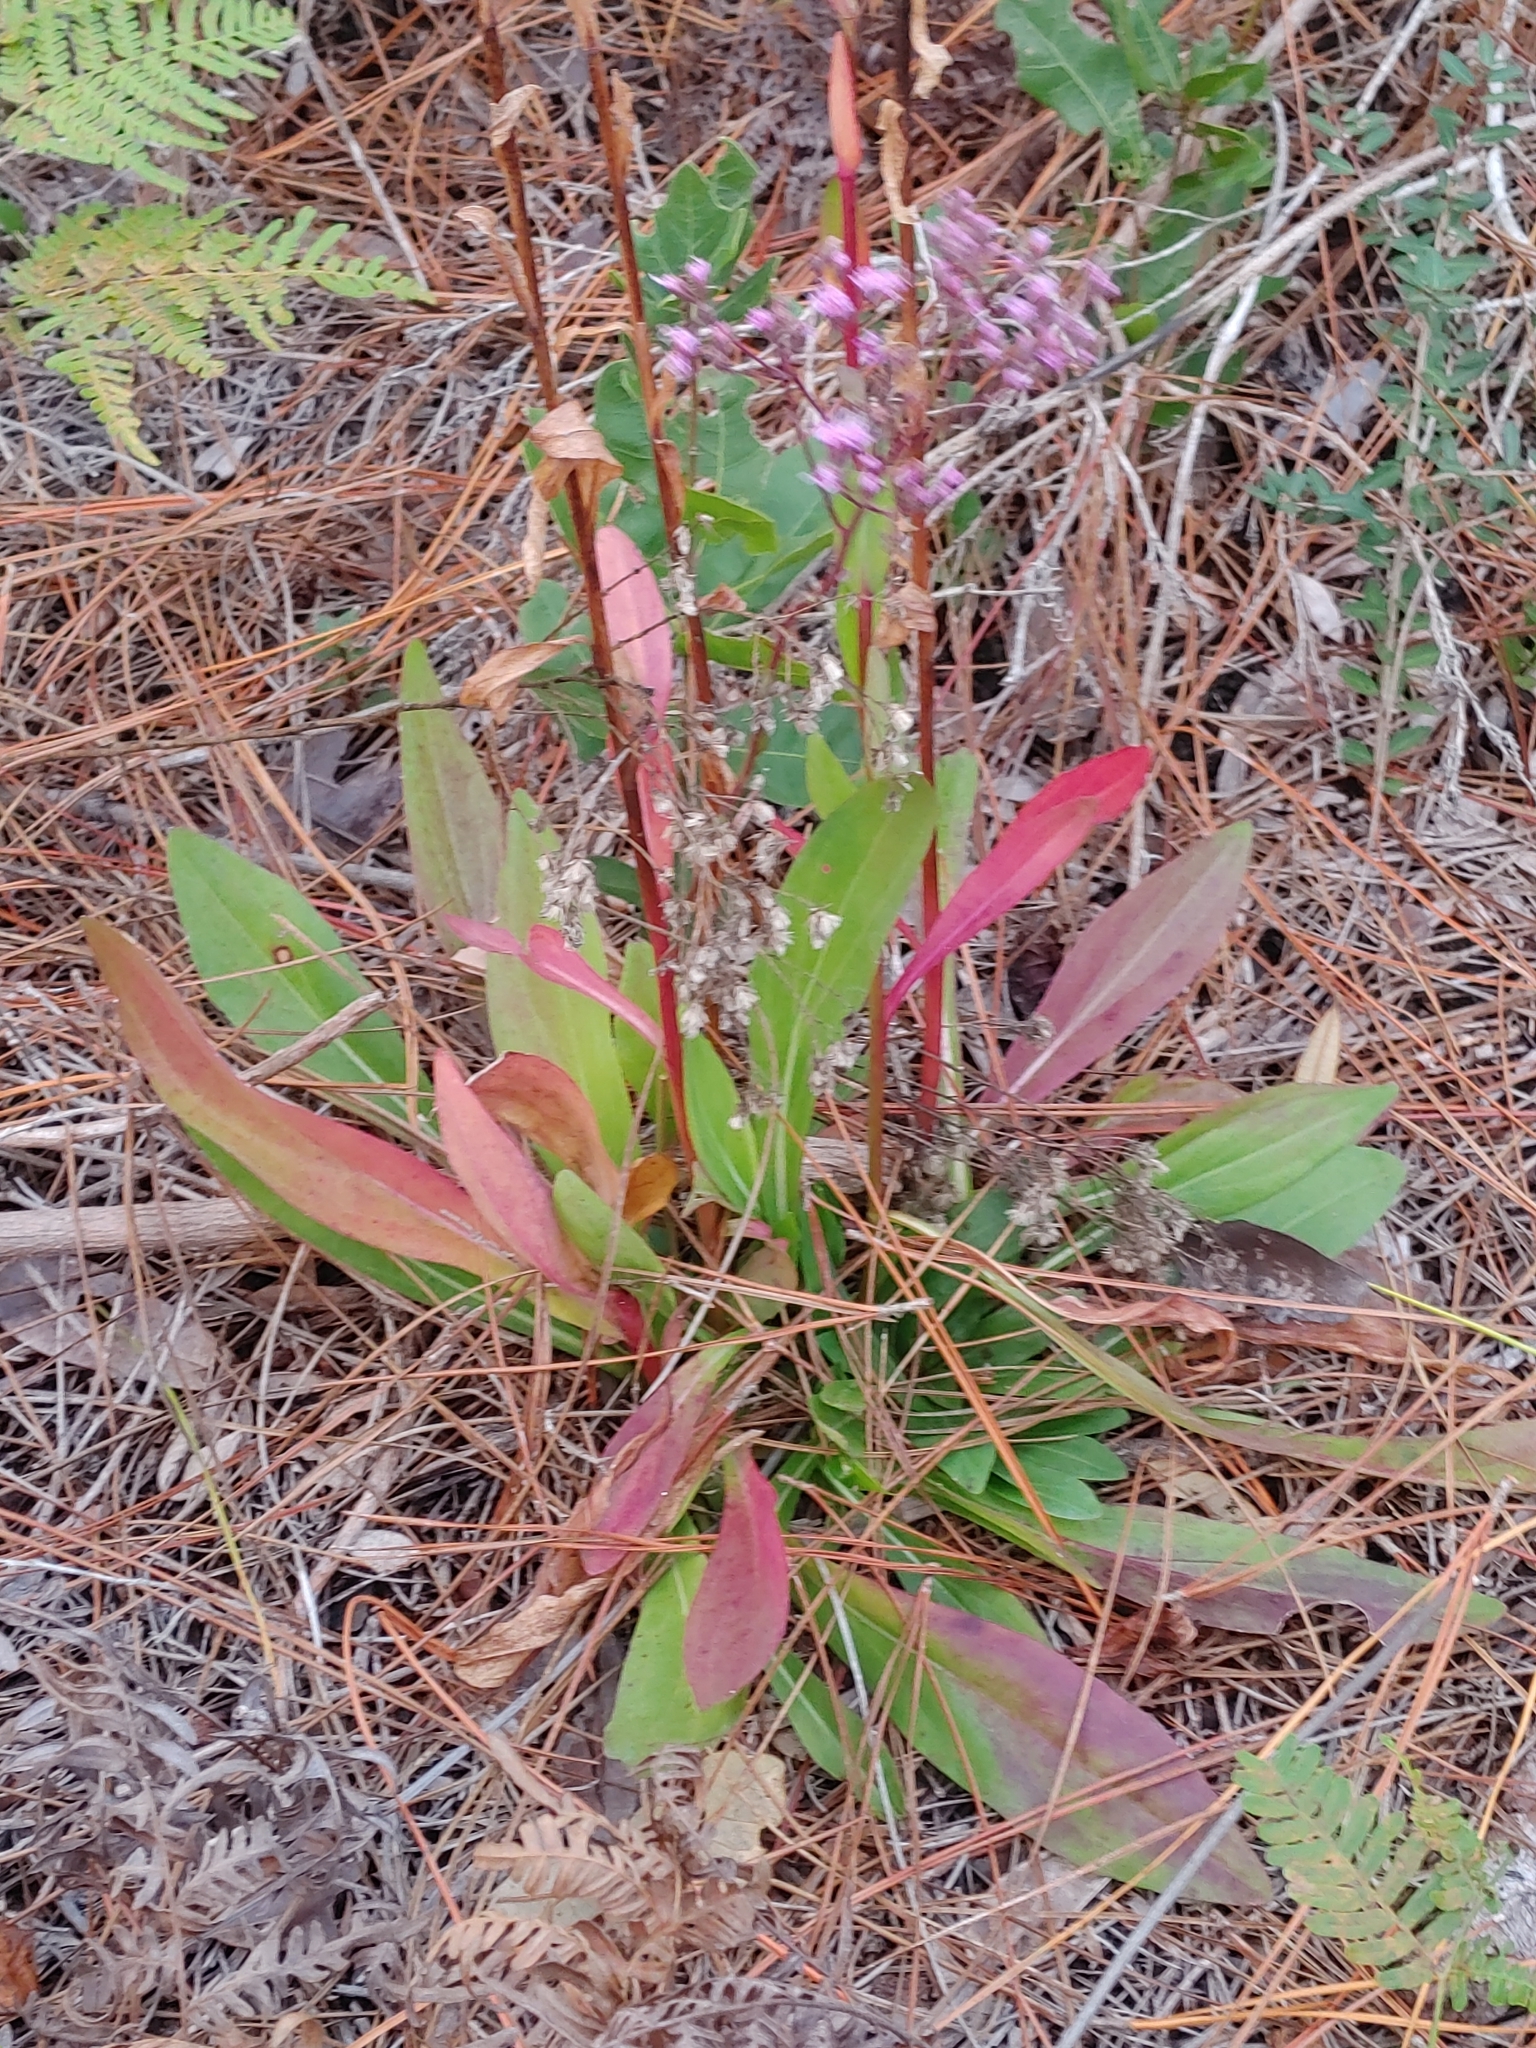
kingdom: Plantae
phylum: Tracheophyta
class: Magnoliopsida
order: Asterales
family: Asteraceae
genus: Carphephorus
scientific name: Carphephorus odoratissimus
